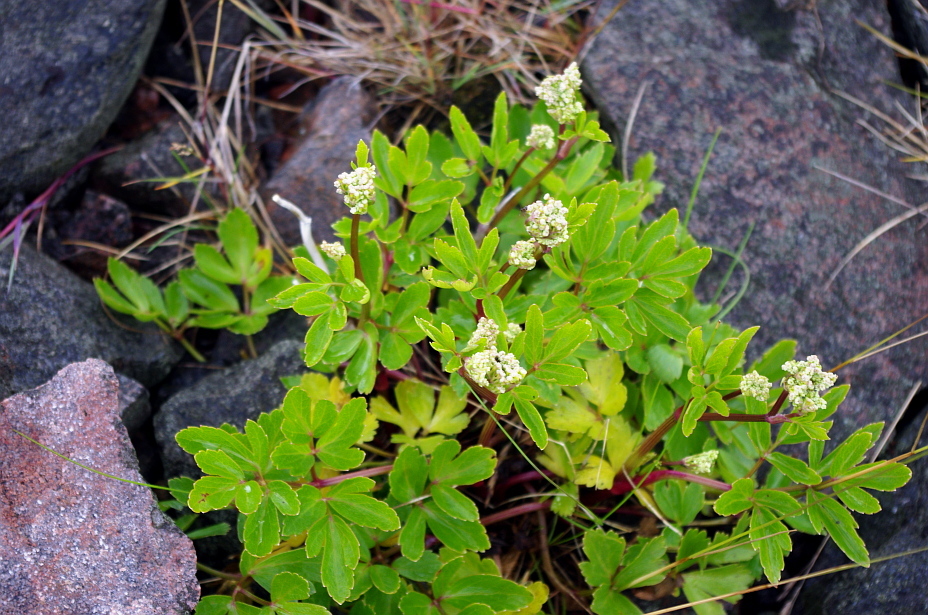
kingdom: Plantae
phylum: Tracheophyta
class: Magnoliopsida
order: Apiales
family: Apiaceae
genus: Ligusticum
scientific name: Ligusticum scothicum
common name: Beach lovage
